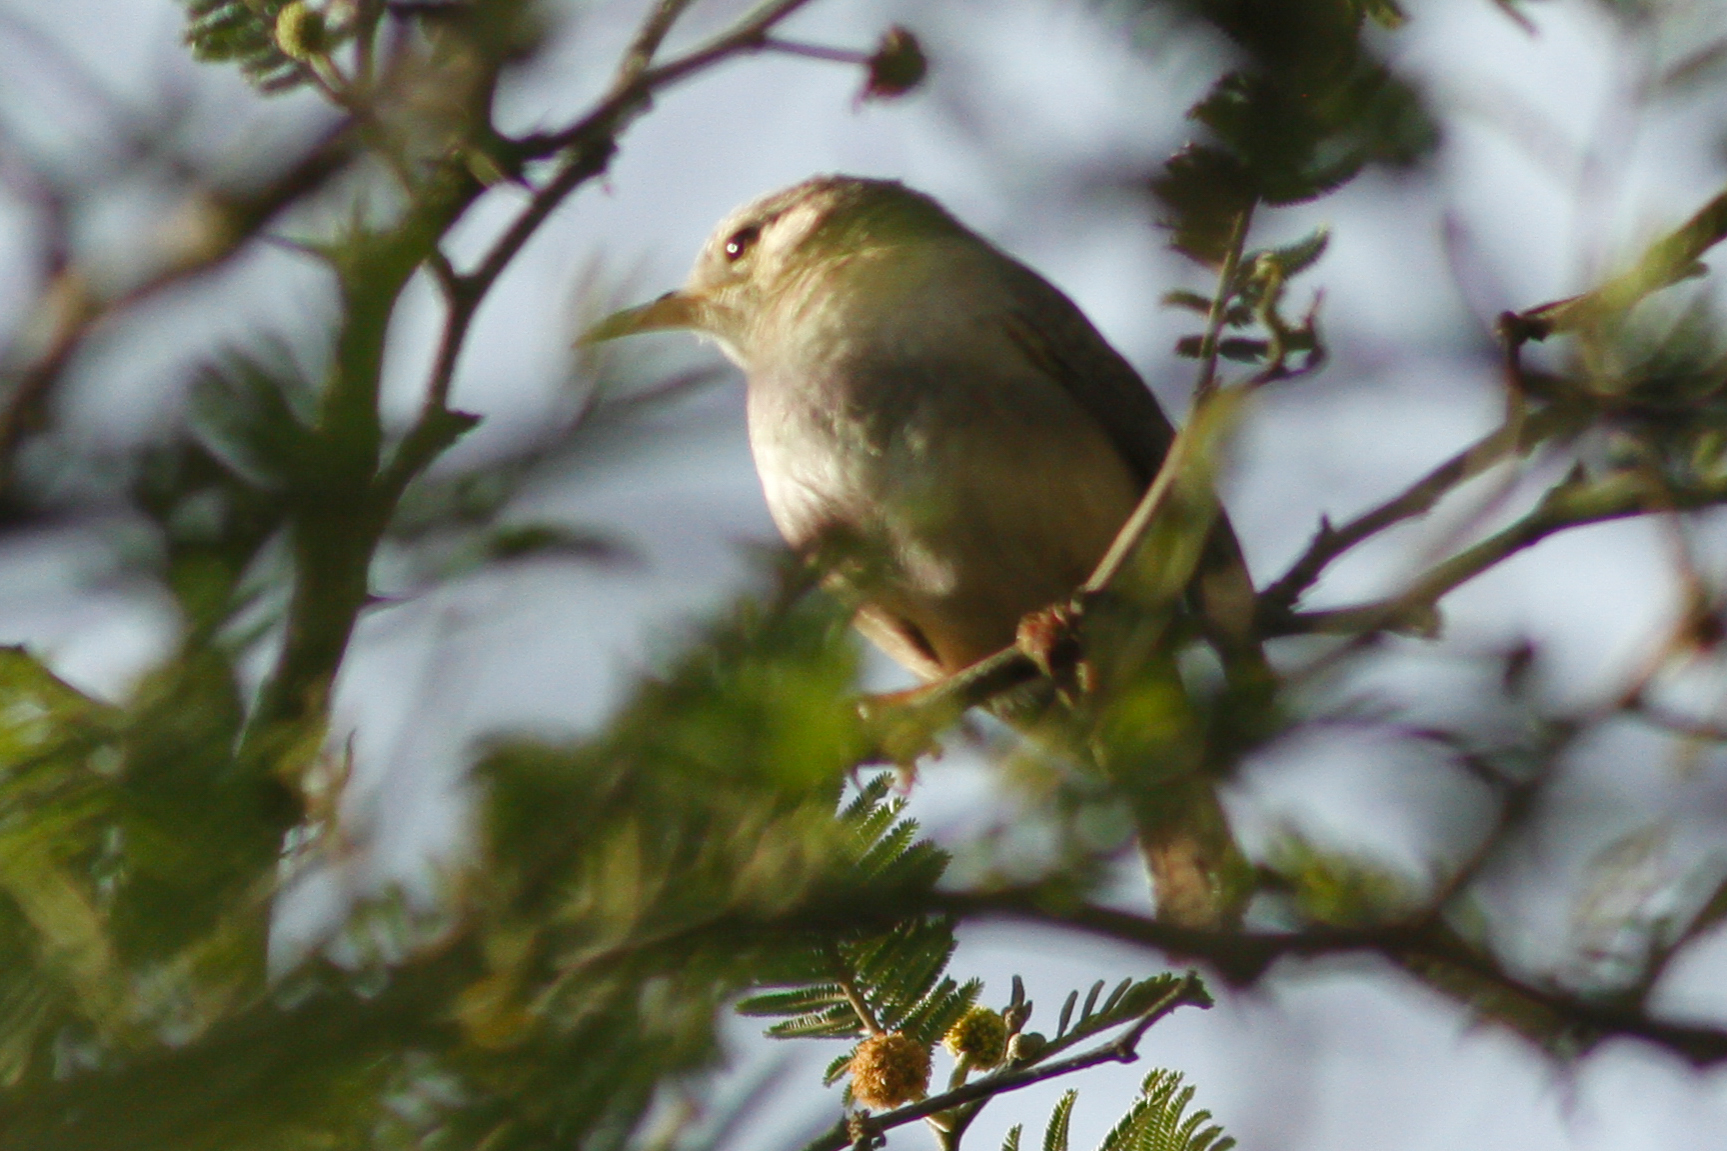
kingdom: Animalia
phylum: Chordata
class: Aves
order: Passeriformes
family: Troglodytidae
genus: Troglodytes
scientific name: Troglodytes aedon
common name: House wren
